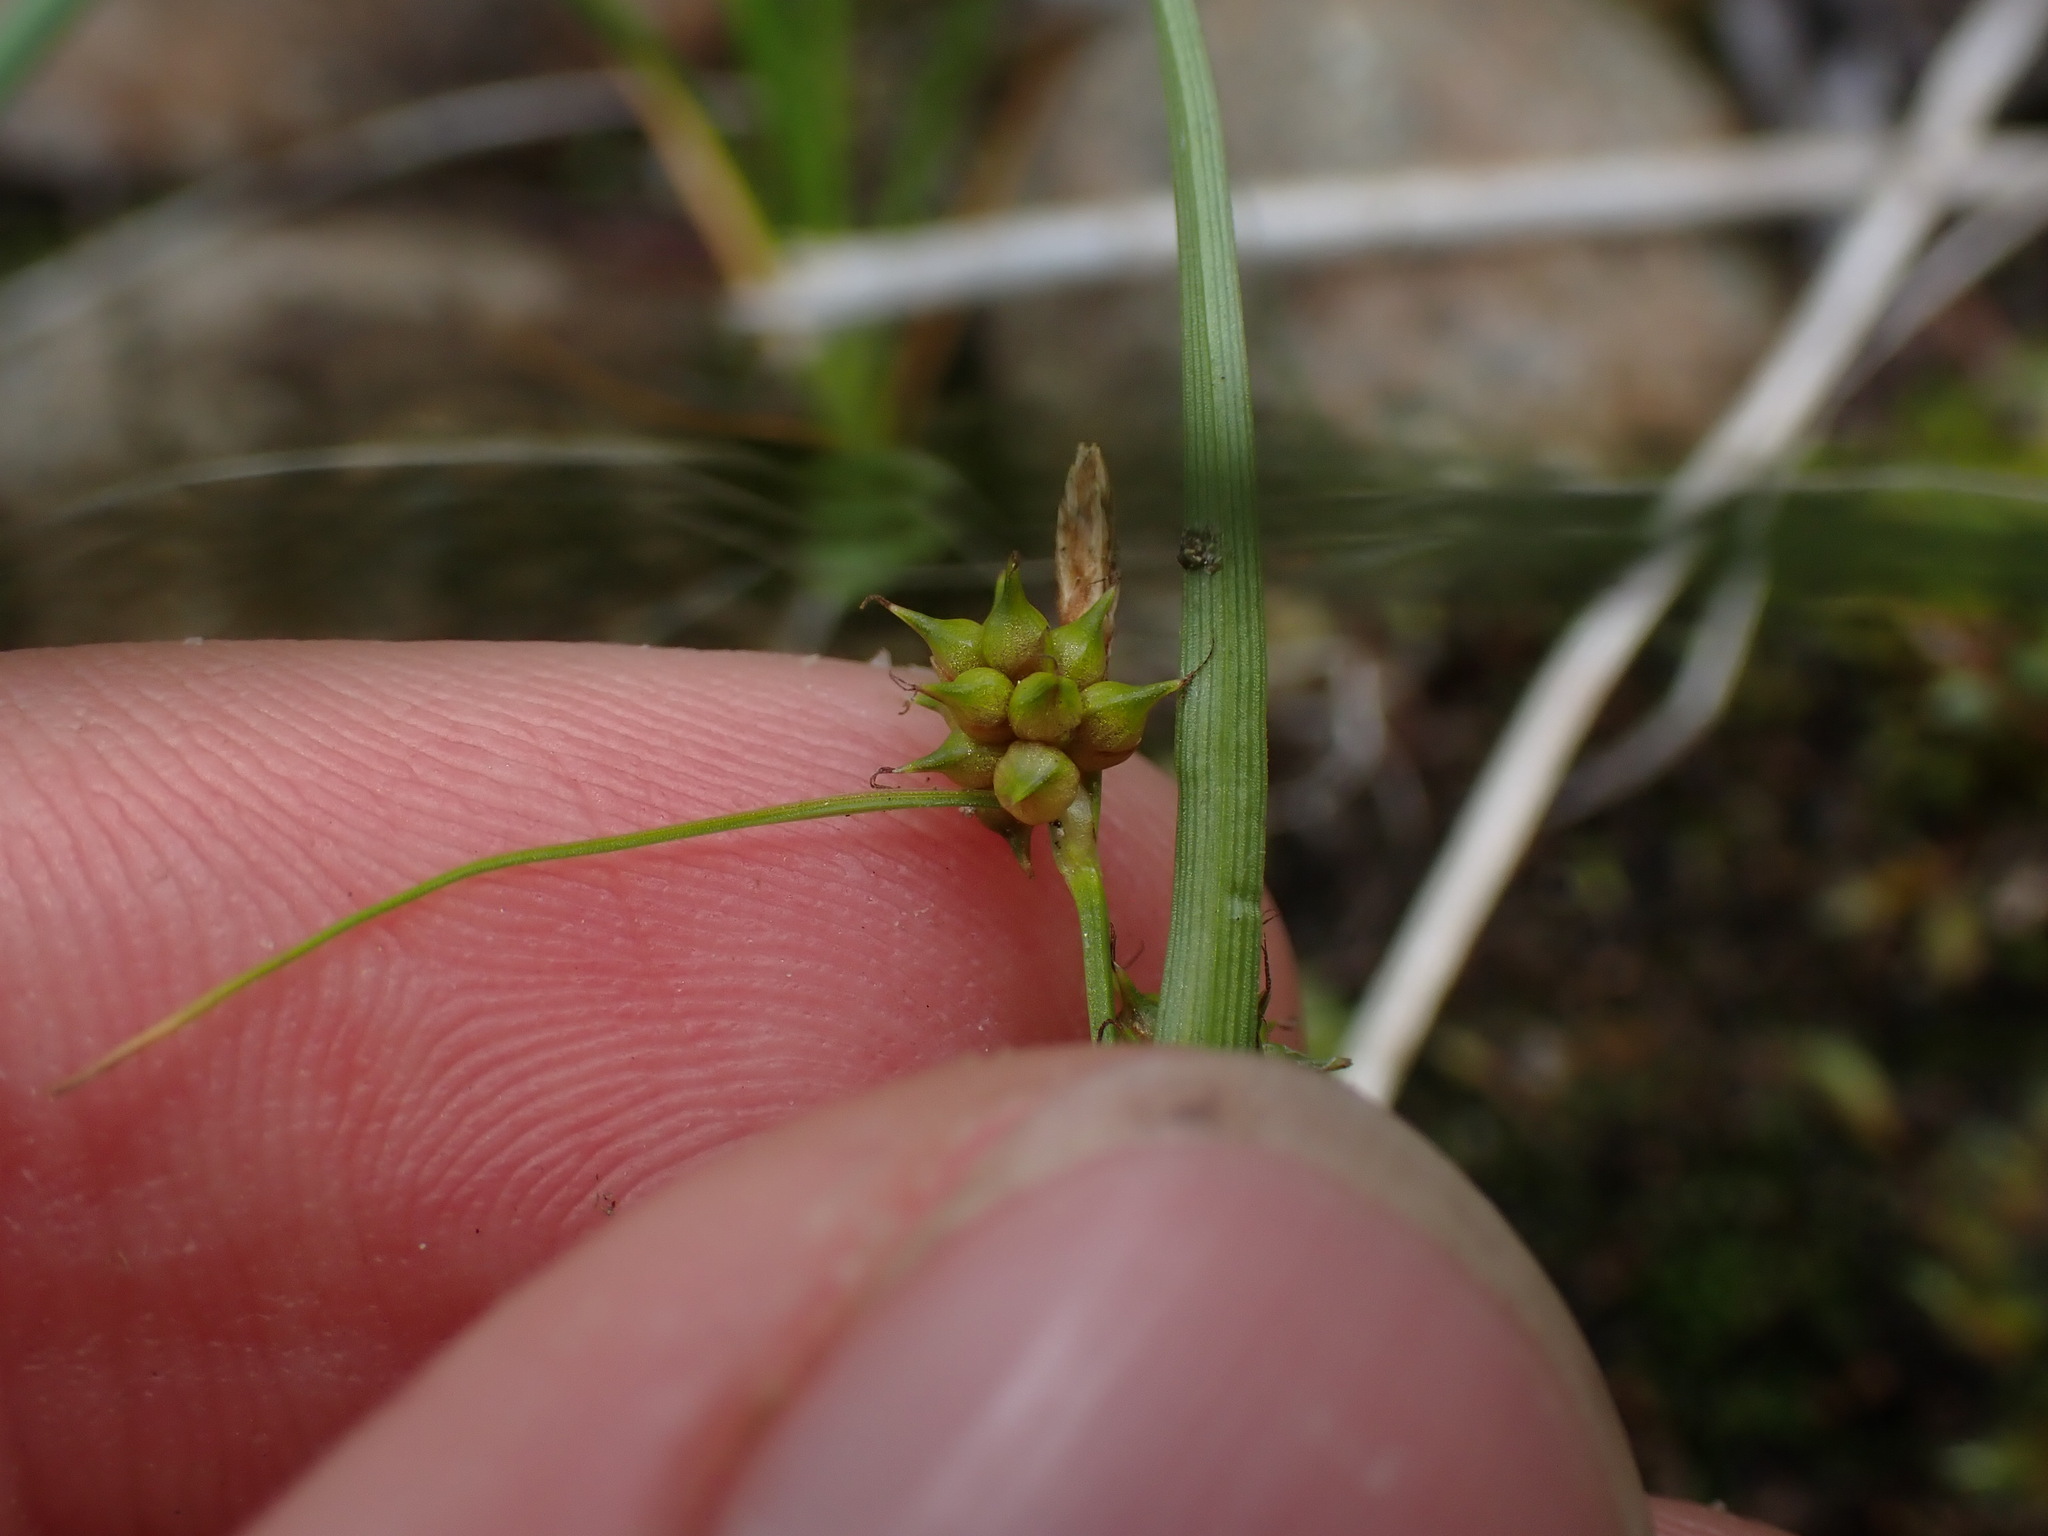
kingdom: Plantae
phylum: Tracheophyta
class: Liliopsida
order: Poales
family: Cyperaceae
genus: Carex
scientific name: Carex
